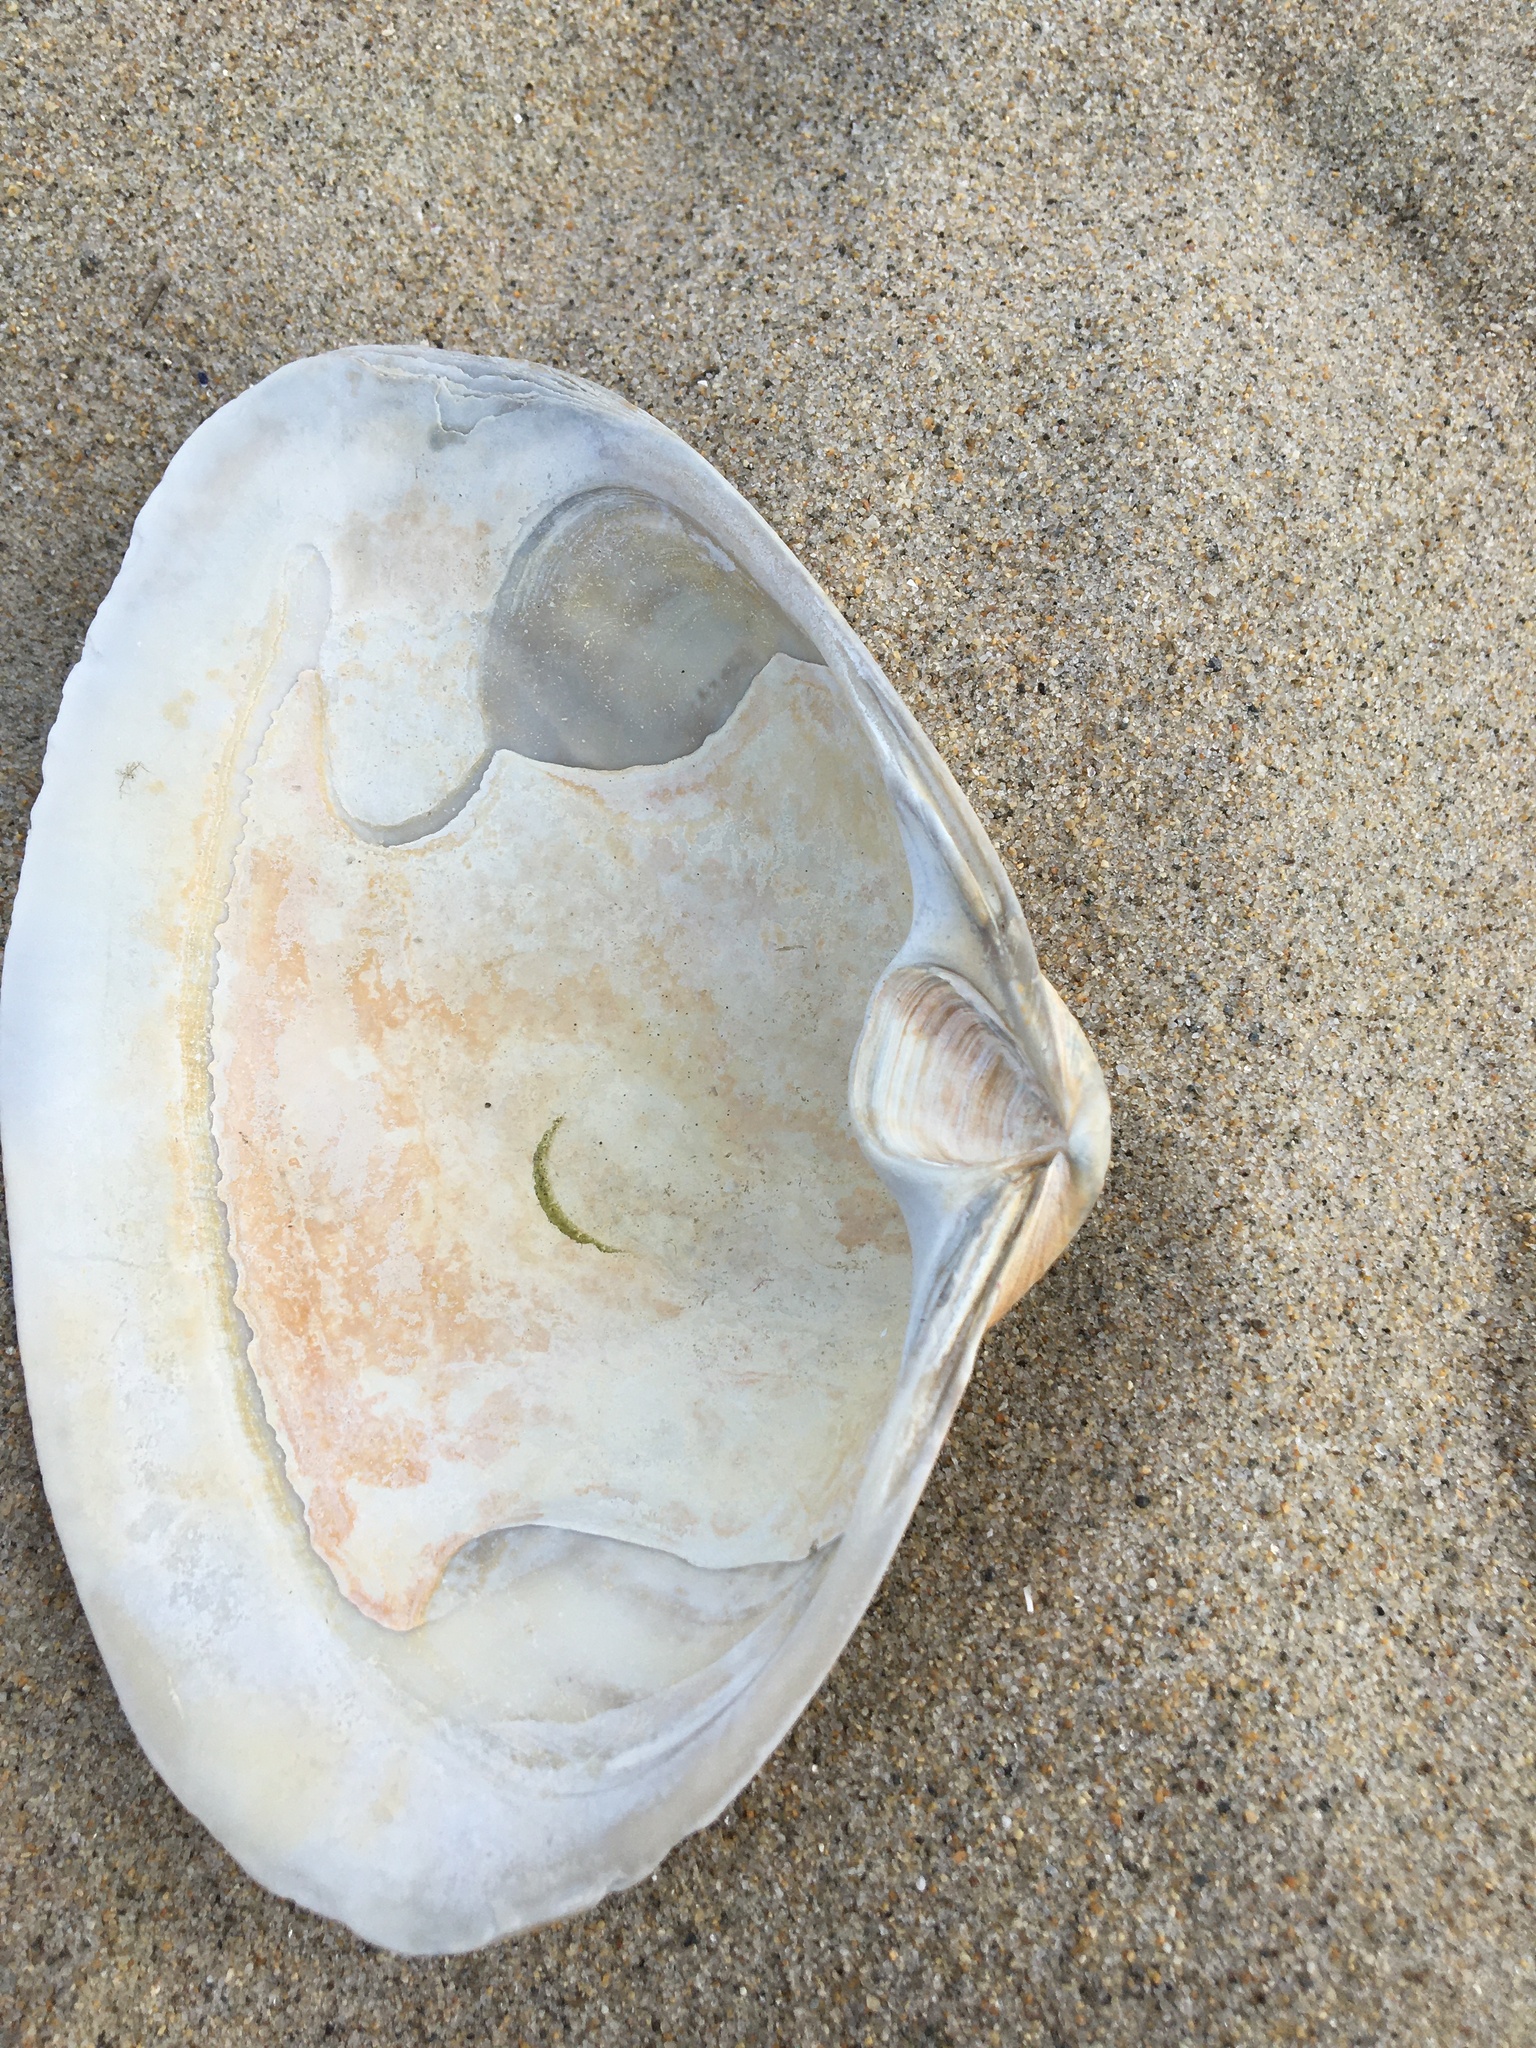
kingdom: Animalia
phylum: Mollusca
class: Bivalvia
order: Venerida
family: Mactridae
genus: Spisula
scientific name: Spisula solidissima
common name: Atlantic surf clam
